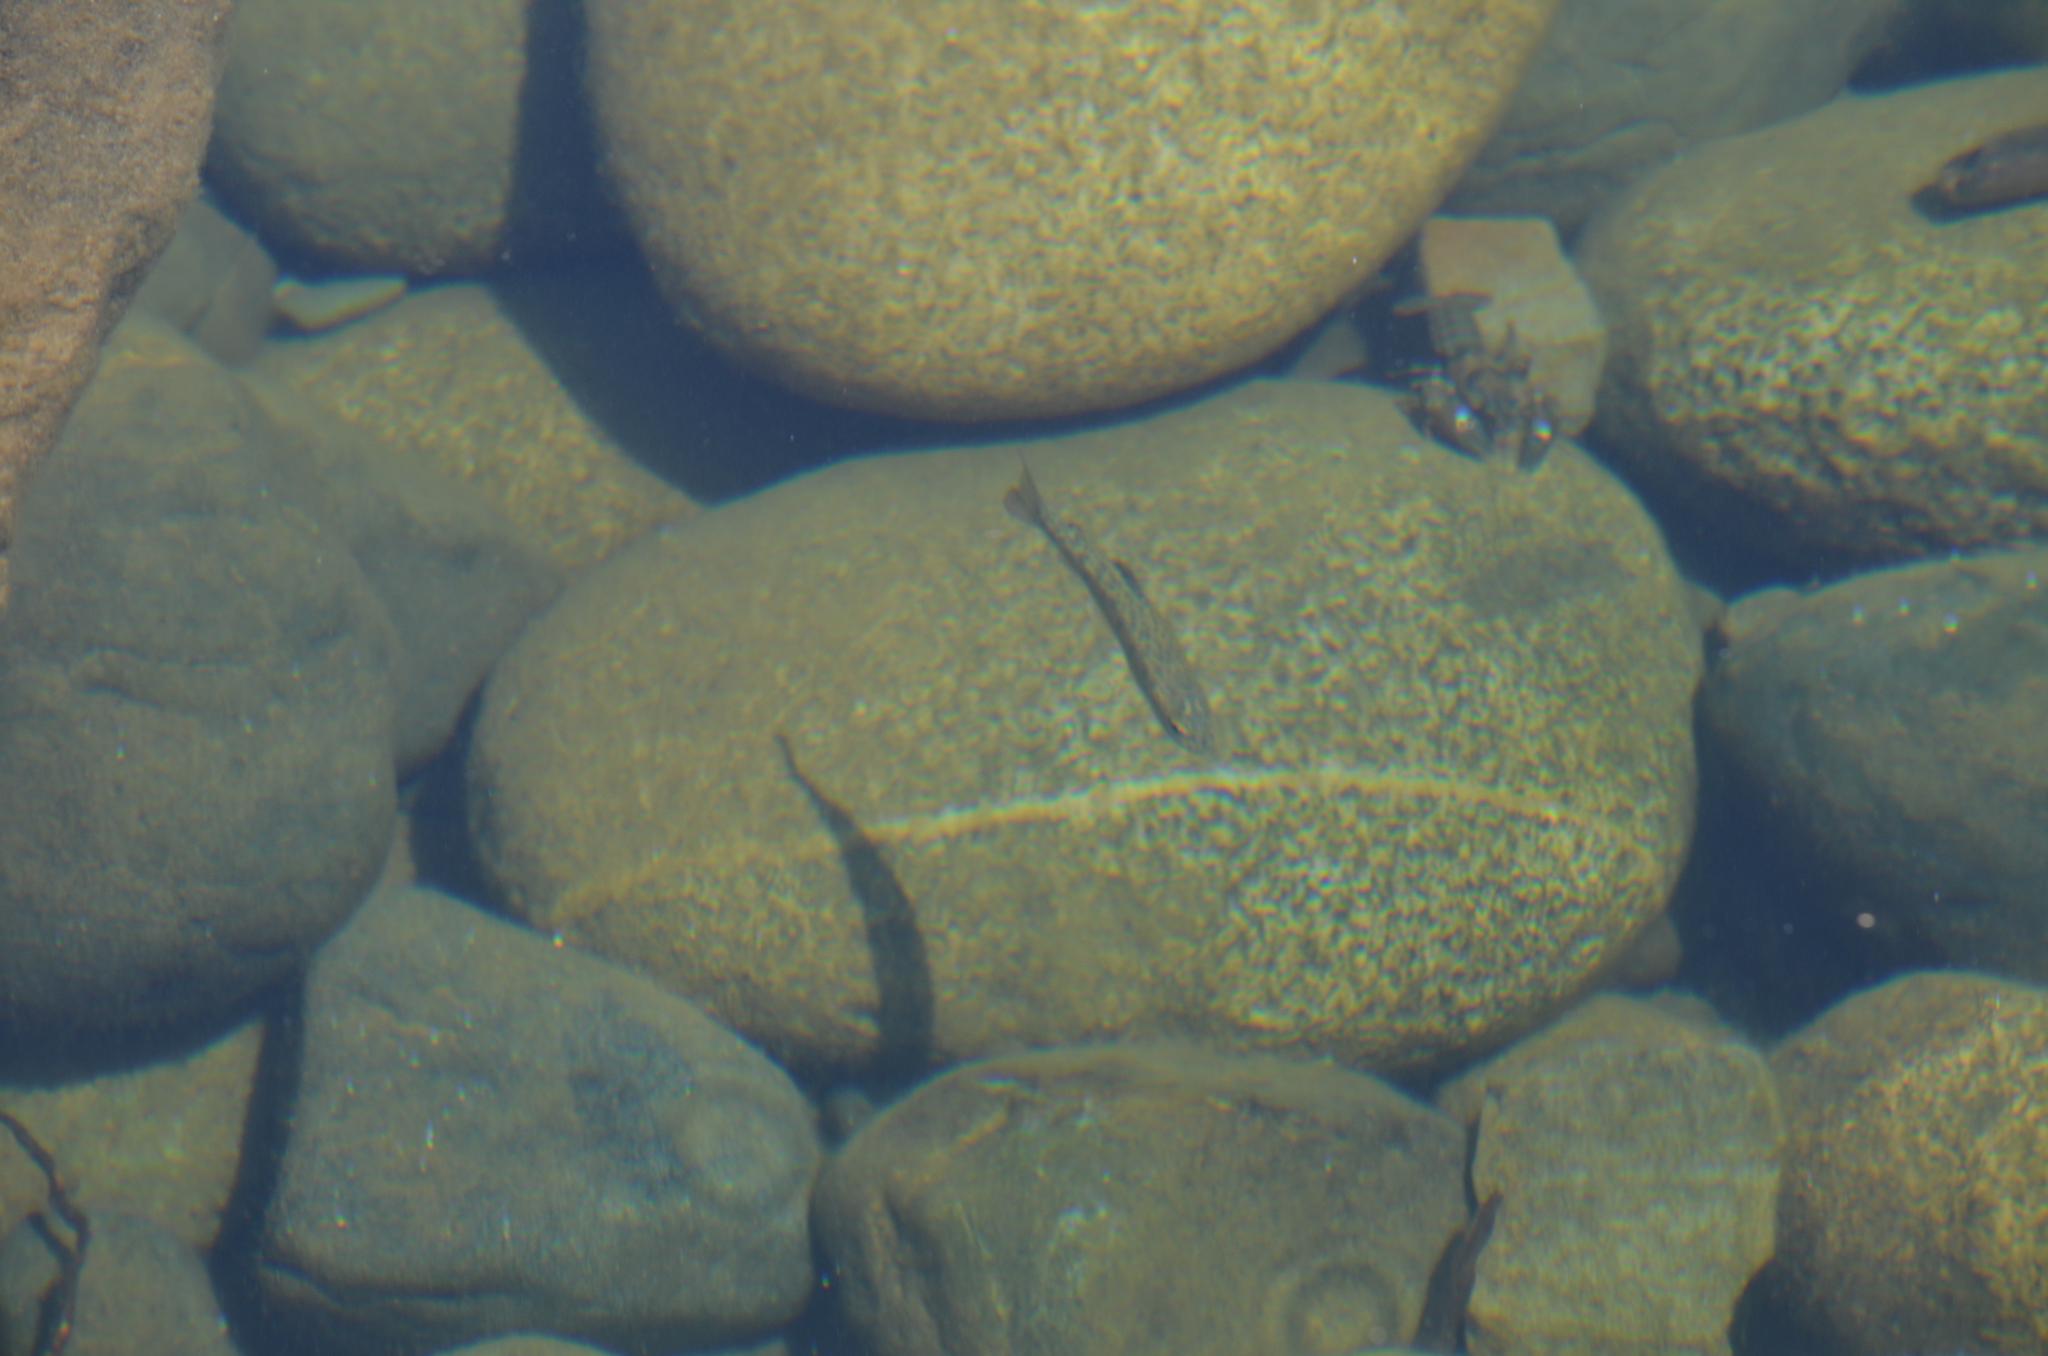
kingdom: Animalia
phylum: Chordata
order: Salmoniformes
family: Salmonidae
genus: Oncorhynchus
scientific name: Oncorhynchus mykiss
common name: Rainbow trout
